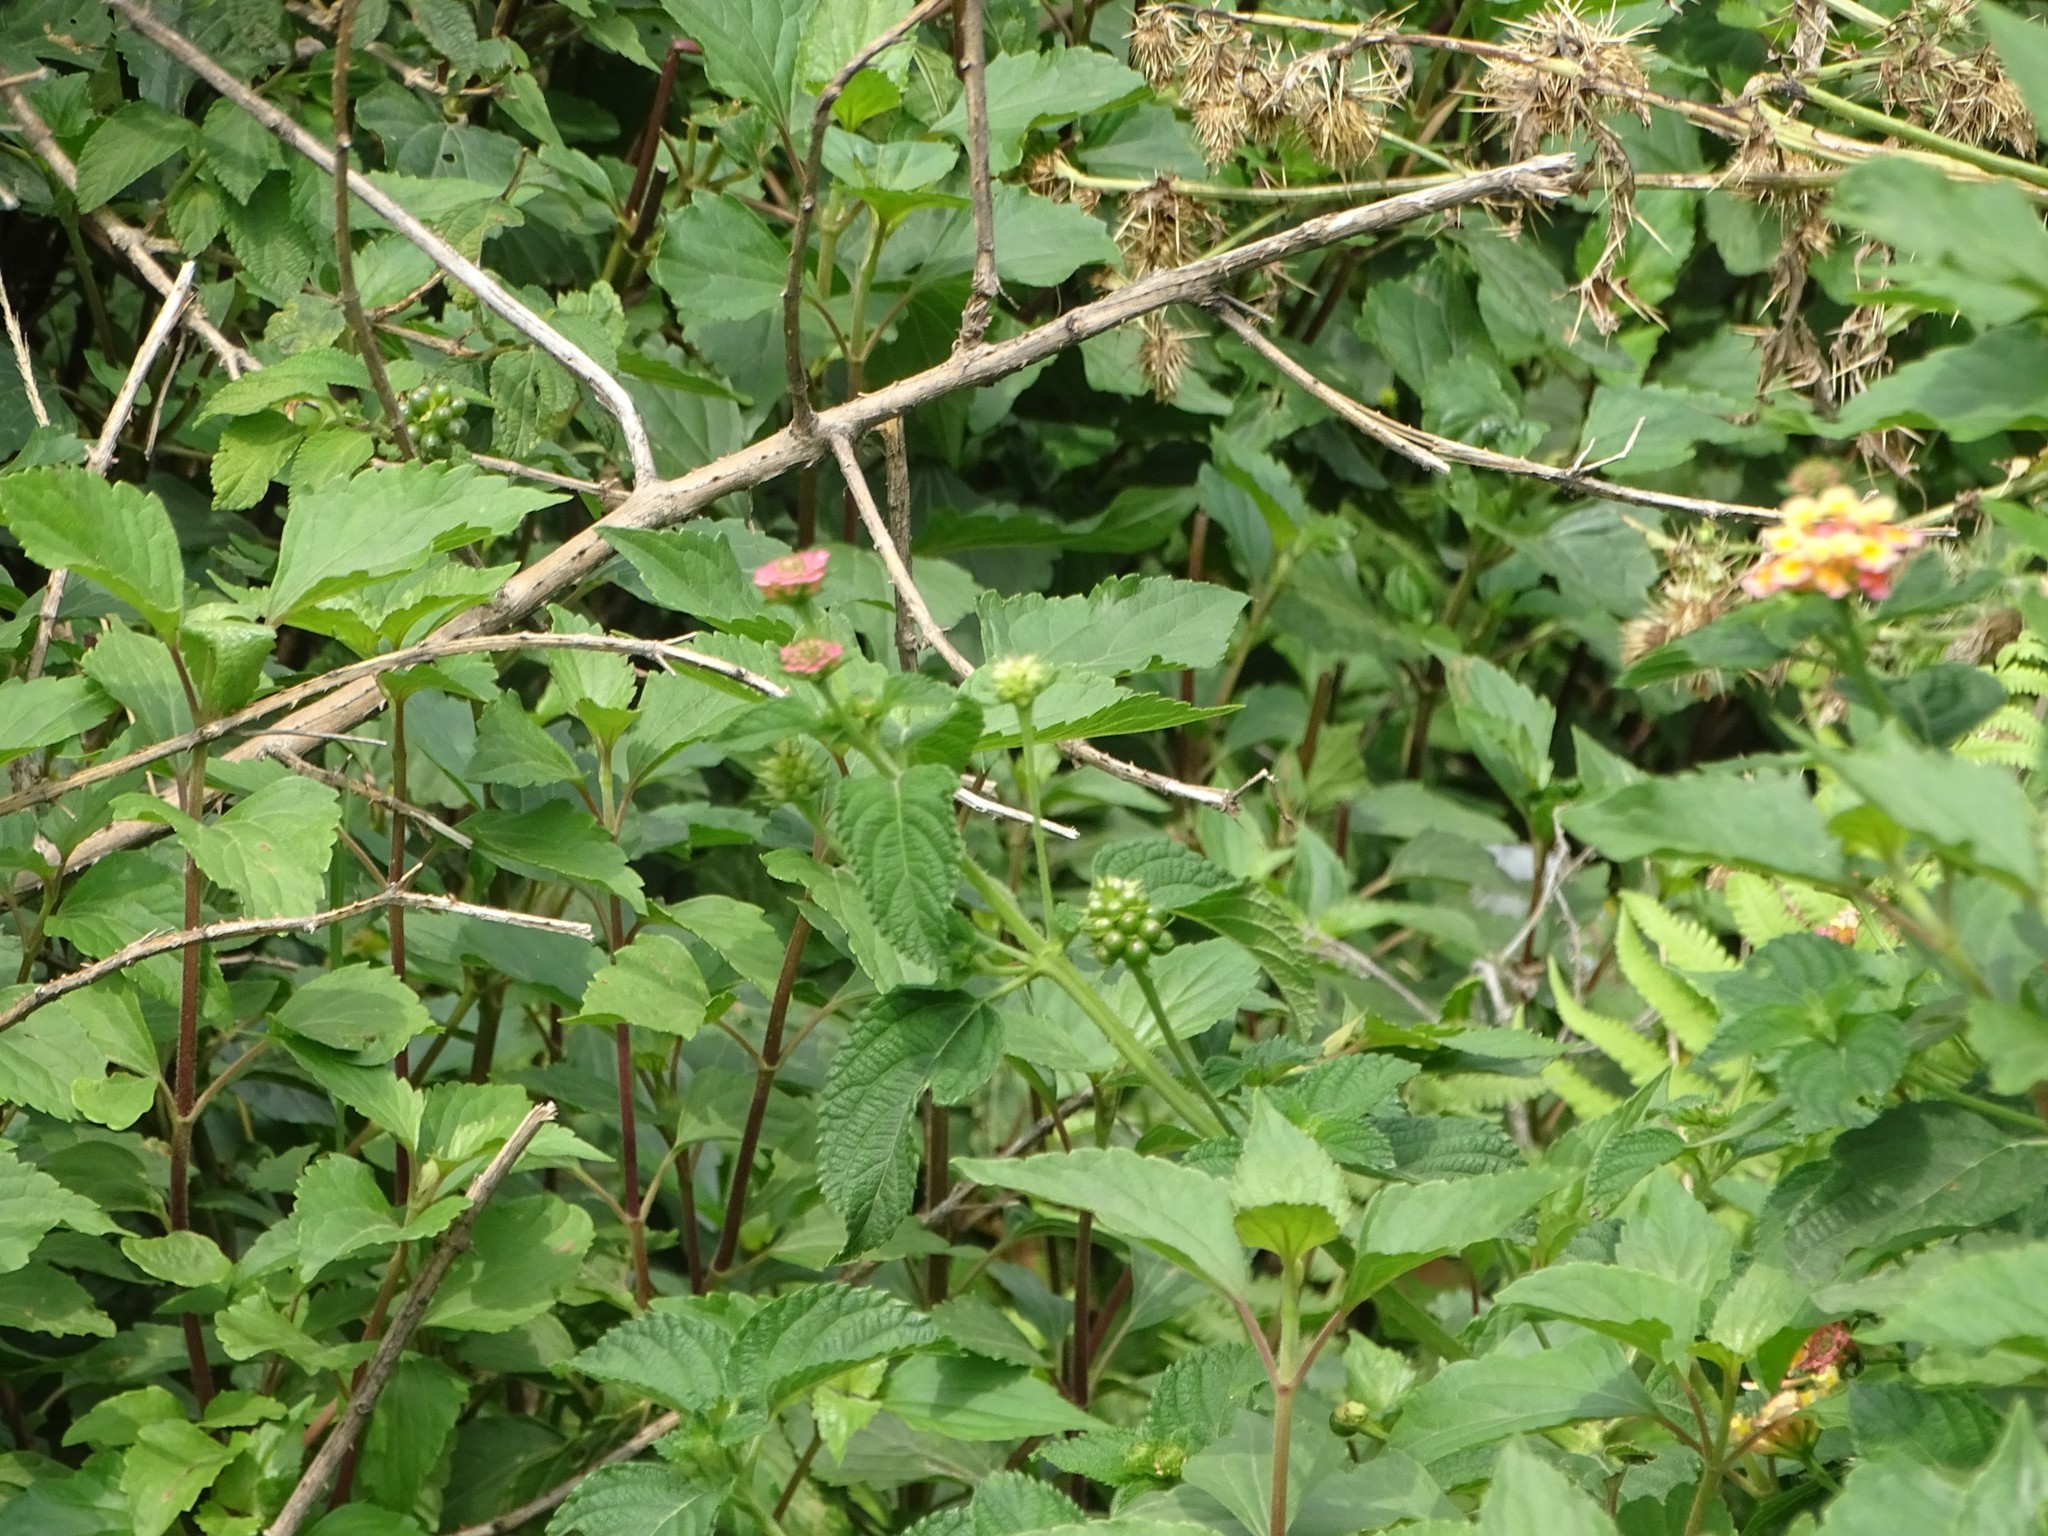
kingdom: Plantae
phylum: Tracheophyta
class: Magnoliopsida
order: Lamiales
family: Verbenaceae
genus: Lantana
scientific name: Lantana camara
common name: Lantana
